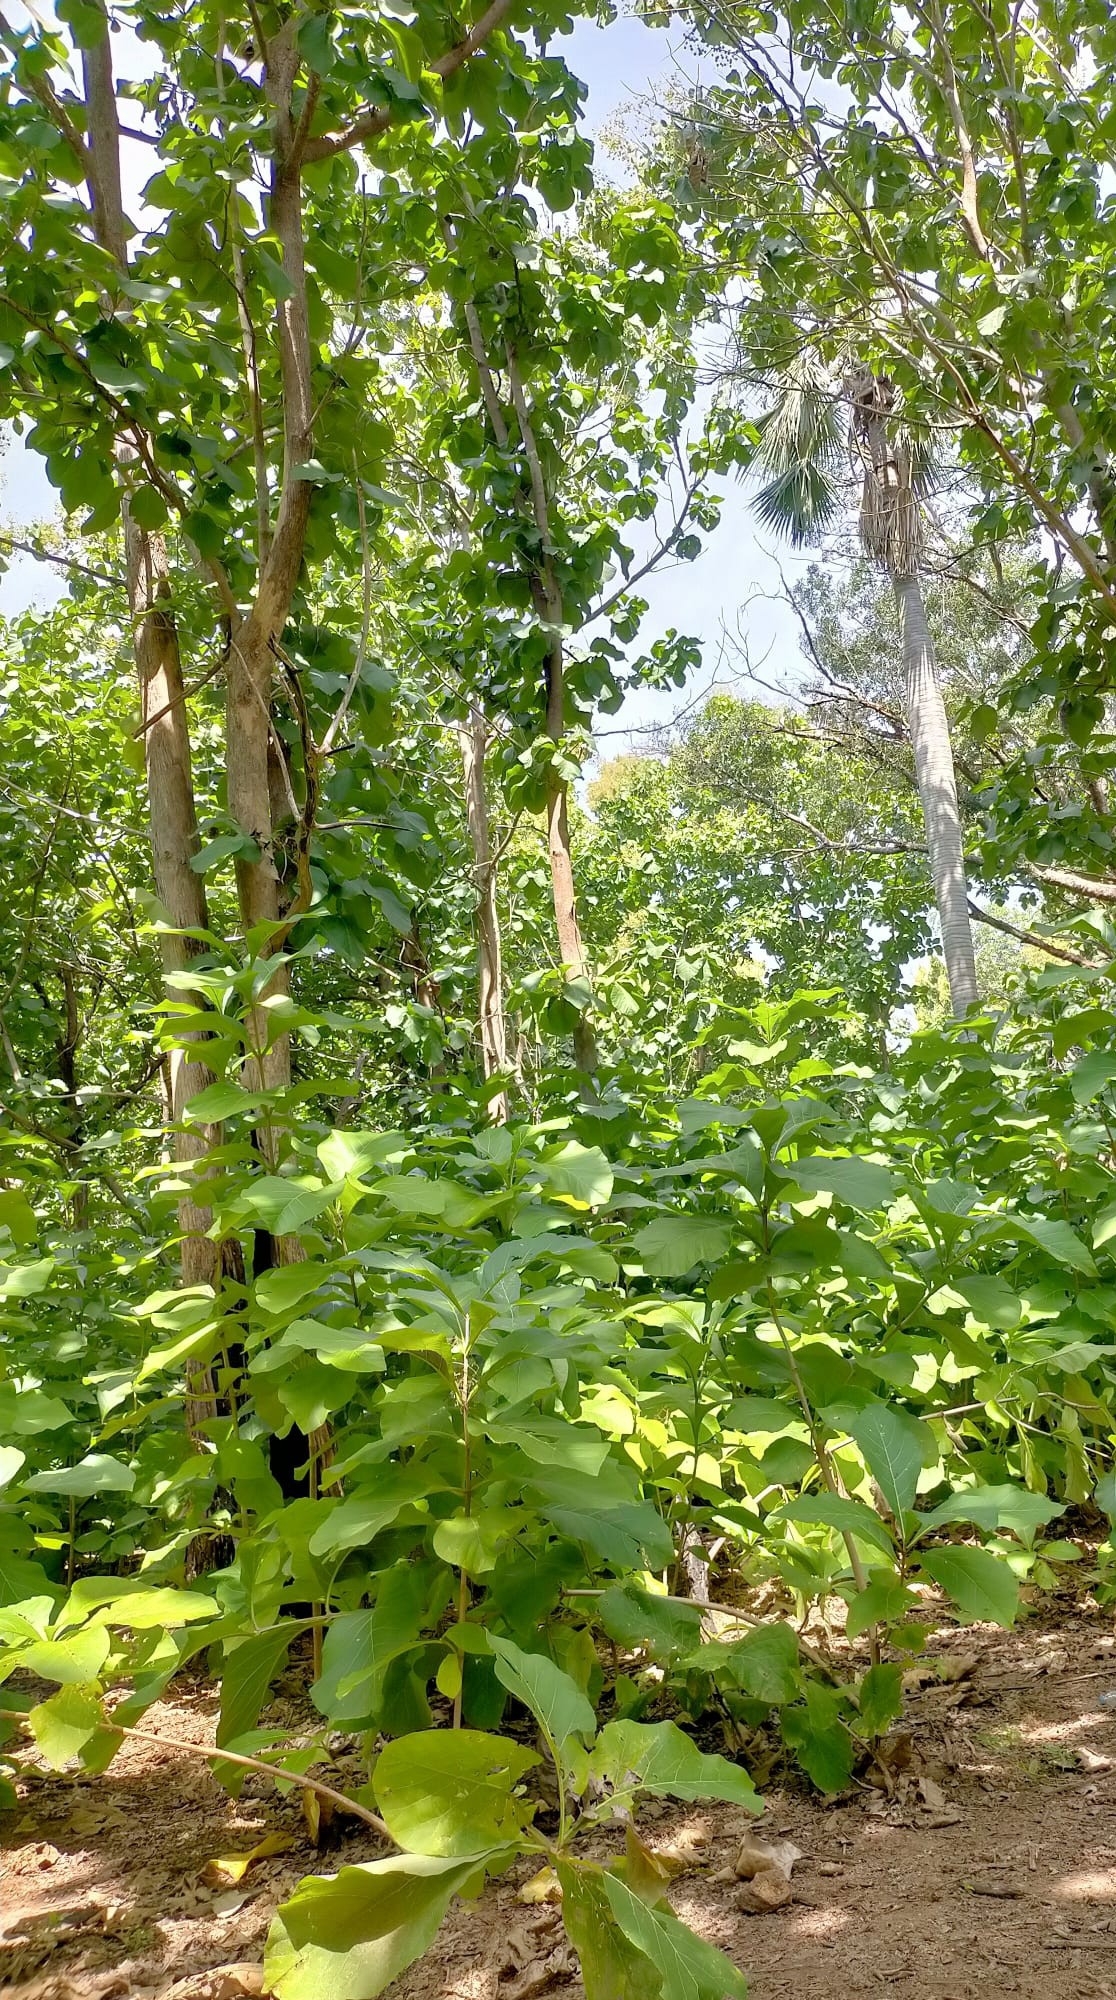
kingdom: Plantae
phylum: Tracheophyta
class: Magnoliopsida
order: Lamiales
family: Lamiaceae
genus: Tectona
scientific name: Tectona grandis
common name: Teak
